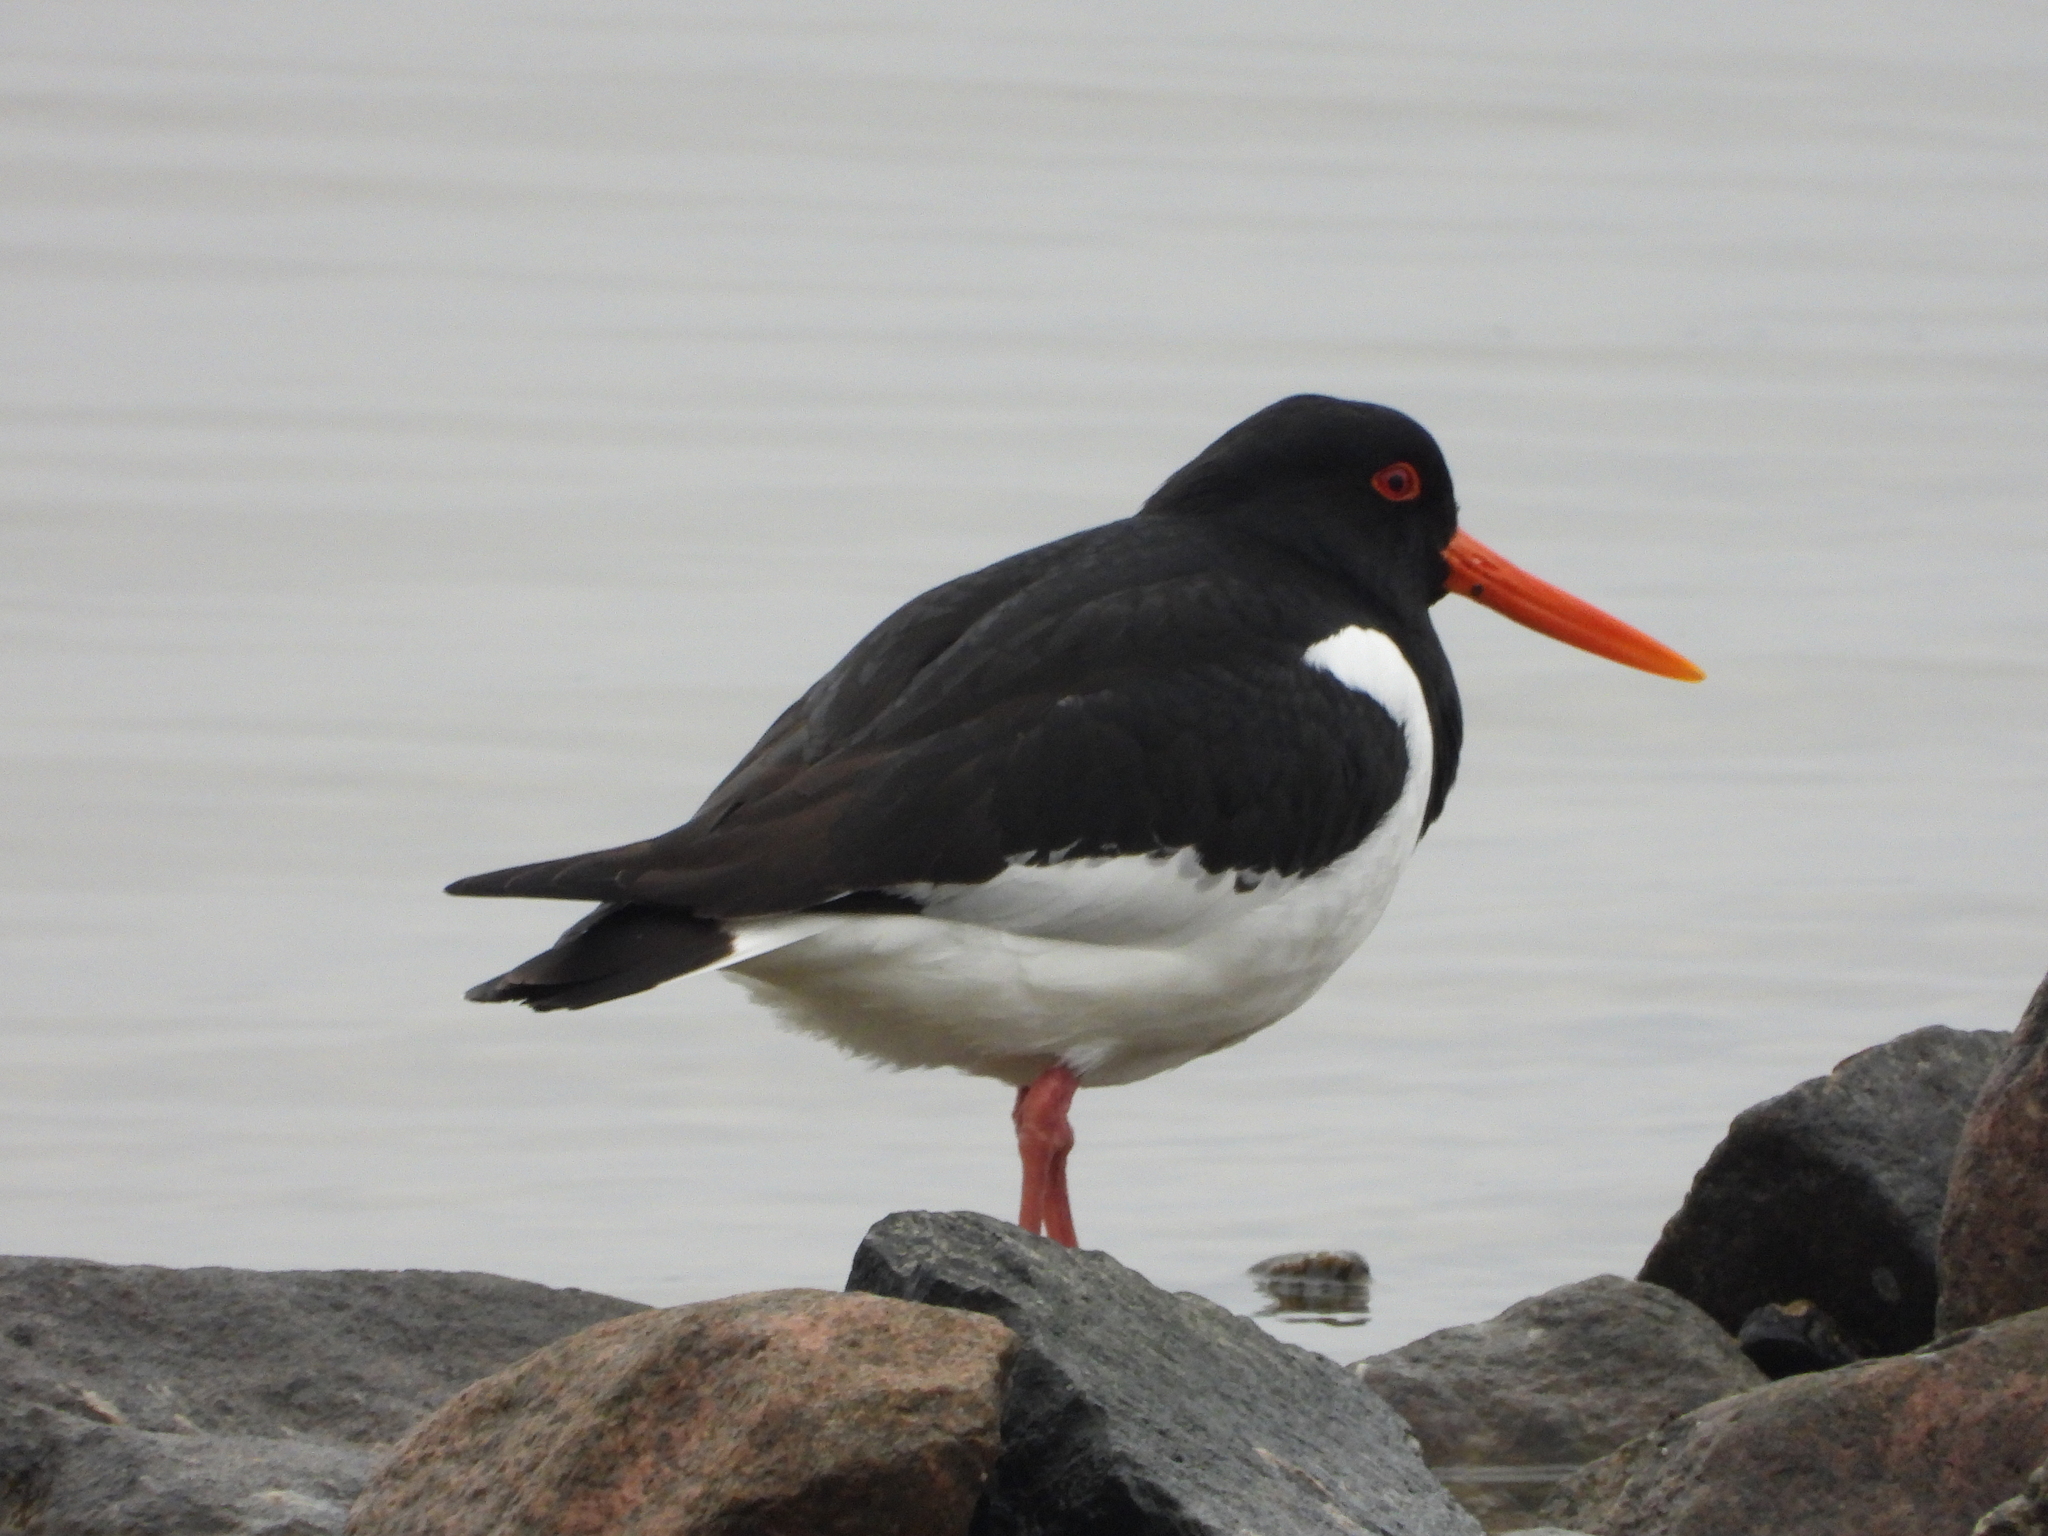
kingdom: Animalia
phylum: Chordata
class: Aves
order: Charadriiformes
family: Haematopodidae
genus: Haematopus
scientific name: Haematopus ostralegus
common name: Eurasian oystercatcher
